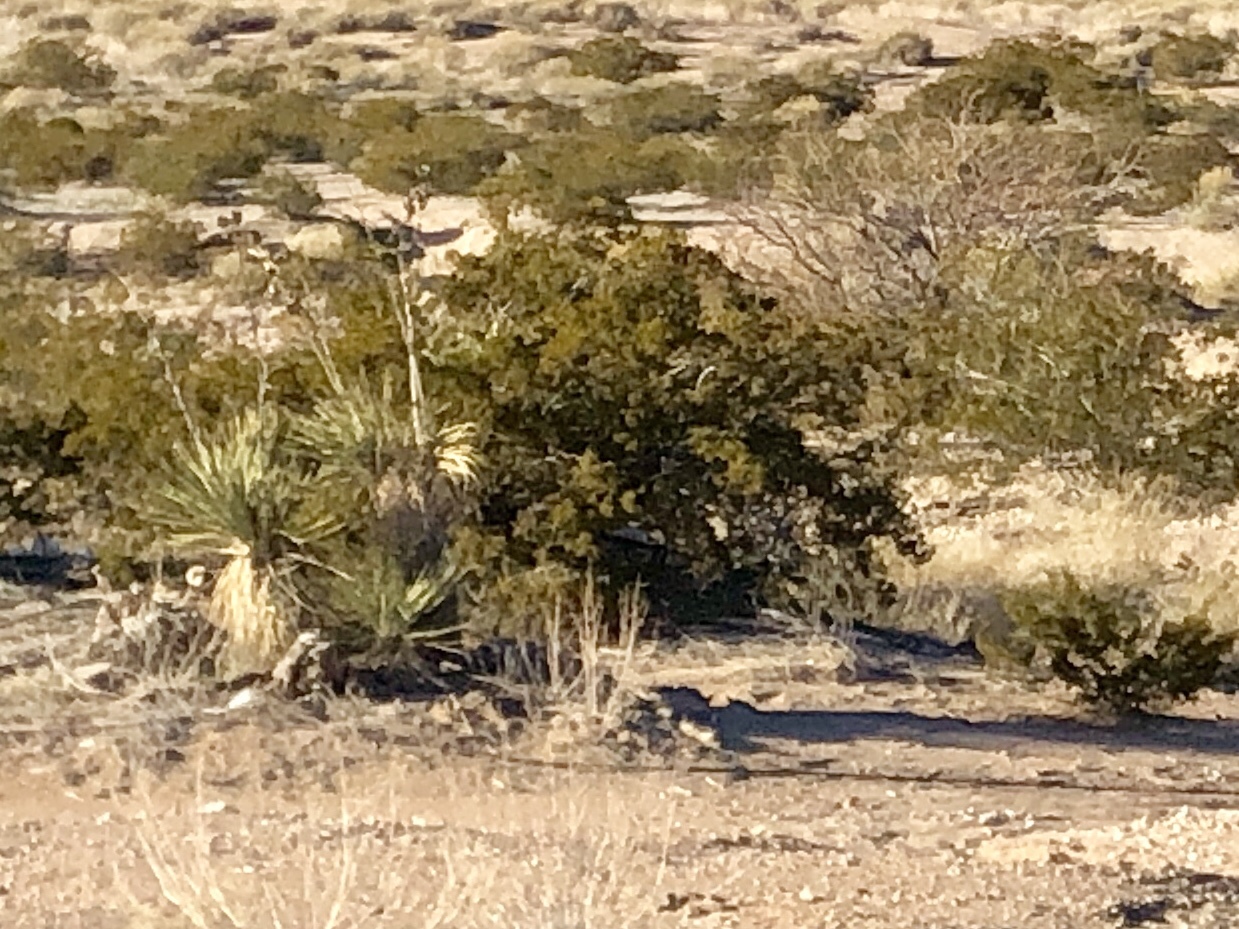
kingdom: Plantae
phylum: Tracheophyta
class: Magnoliopsida
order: Zygophyllales
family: Zygophyllaceae
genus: Larrea
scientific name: Larrea tridentata
